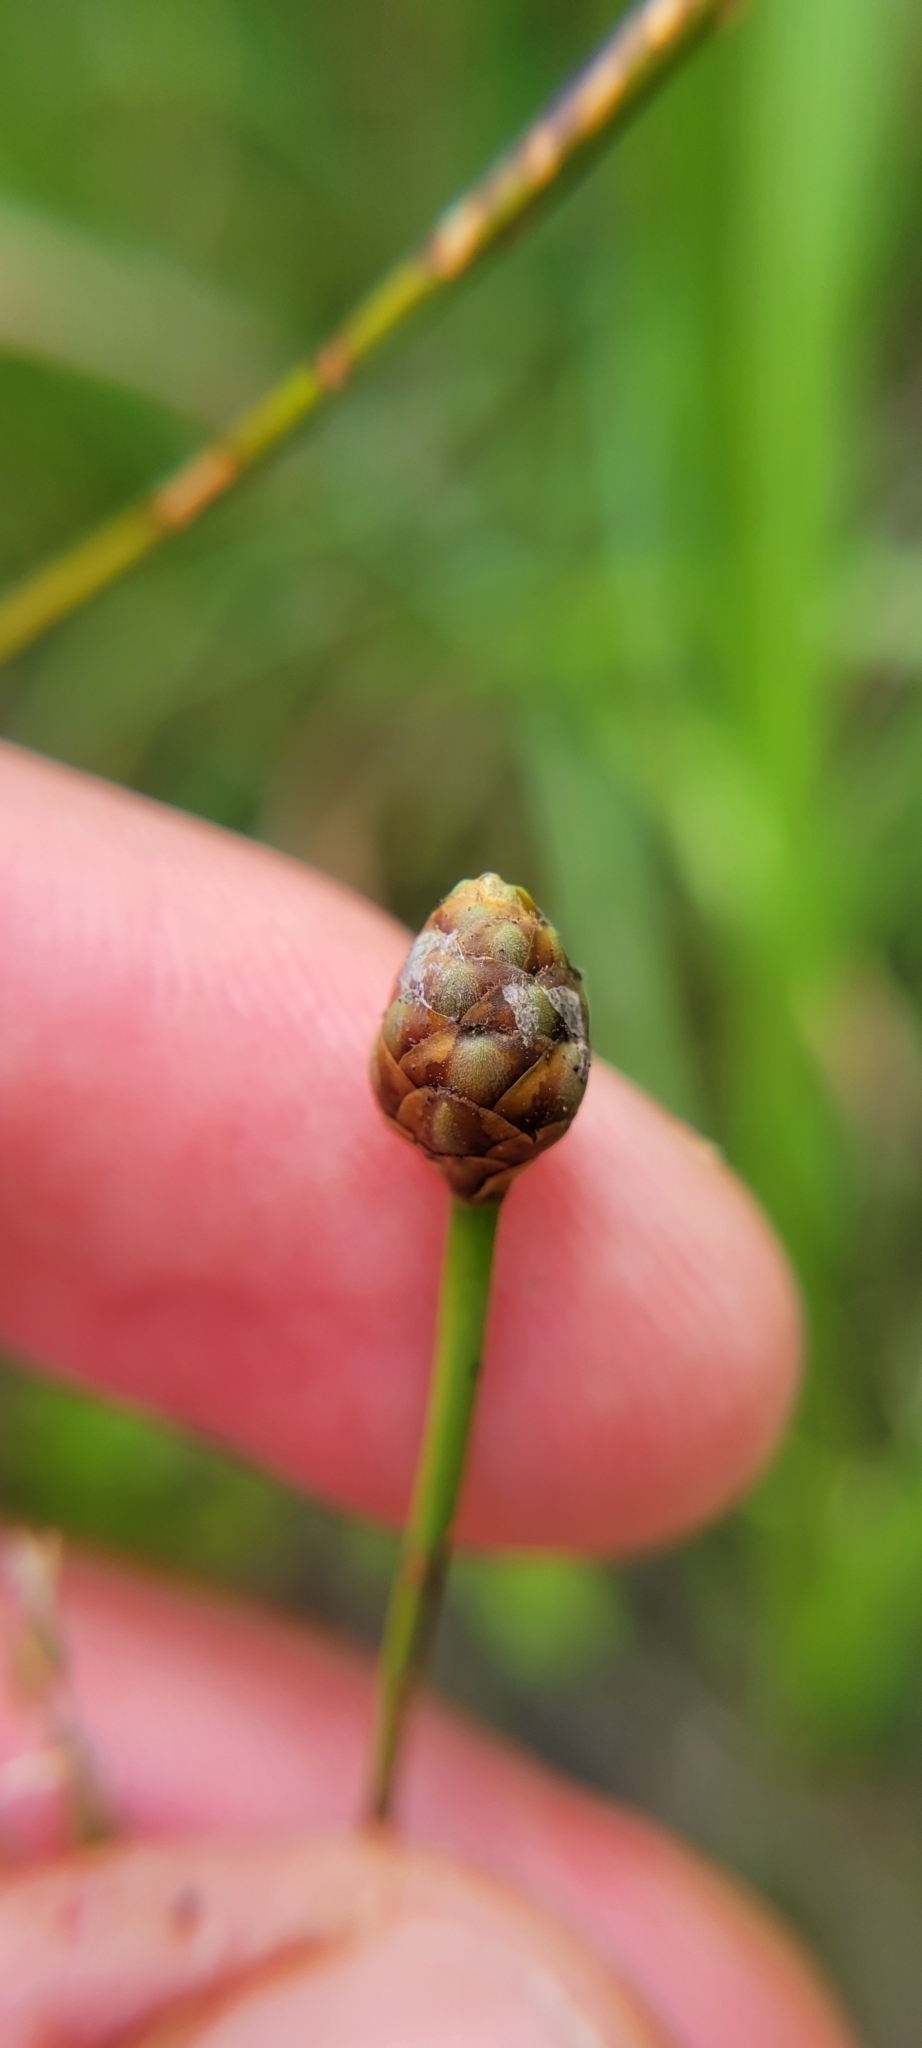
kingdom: Plantae
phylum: Tracheophyta
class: Liliopsida
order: Poales
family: Xyridaceae
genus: Xyris
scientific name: Xyris torta
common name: Common yelloweyed grass
